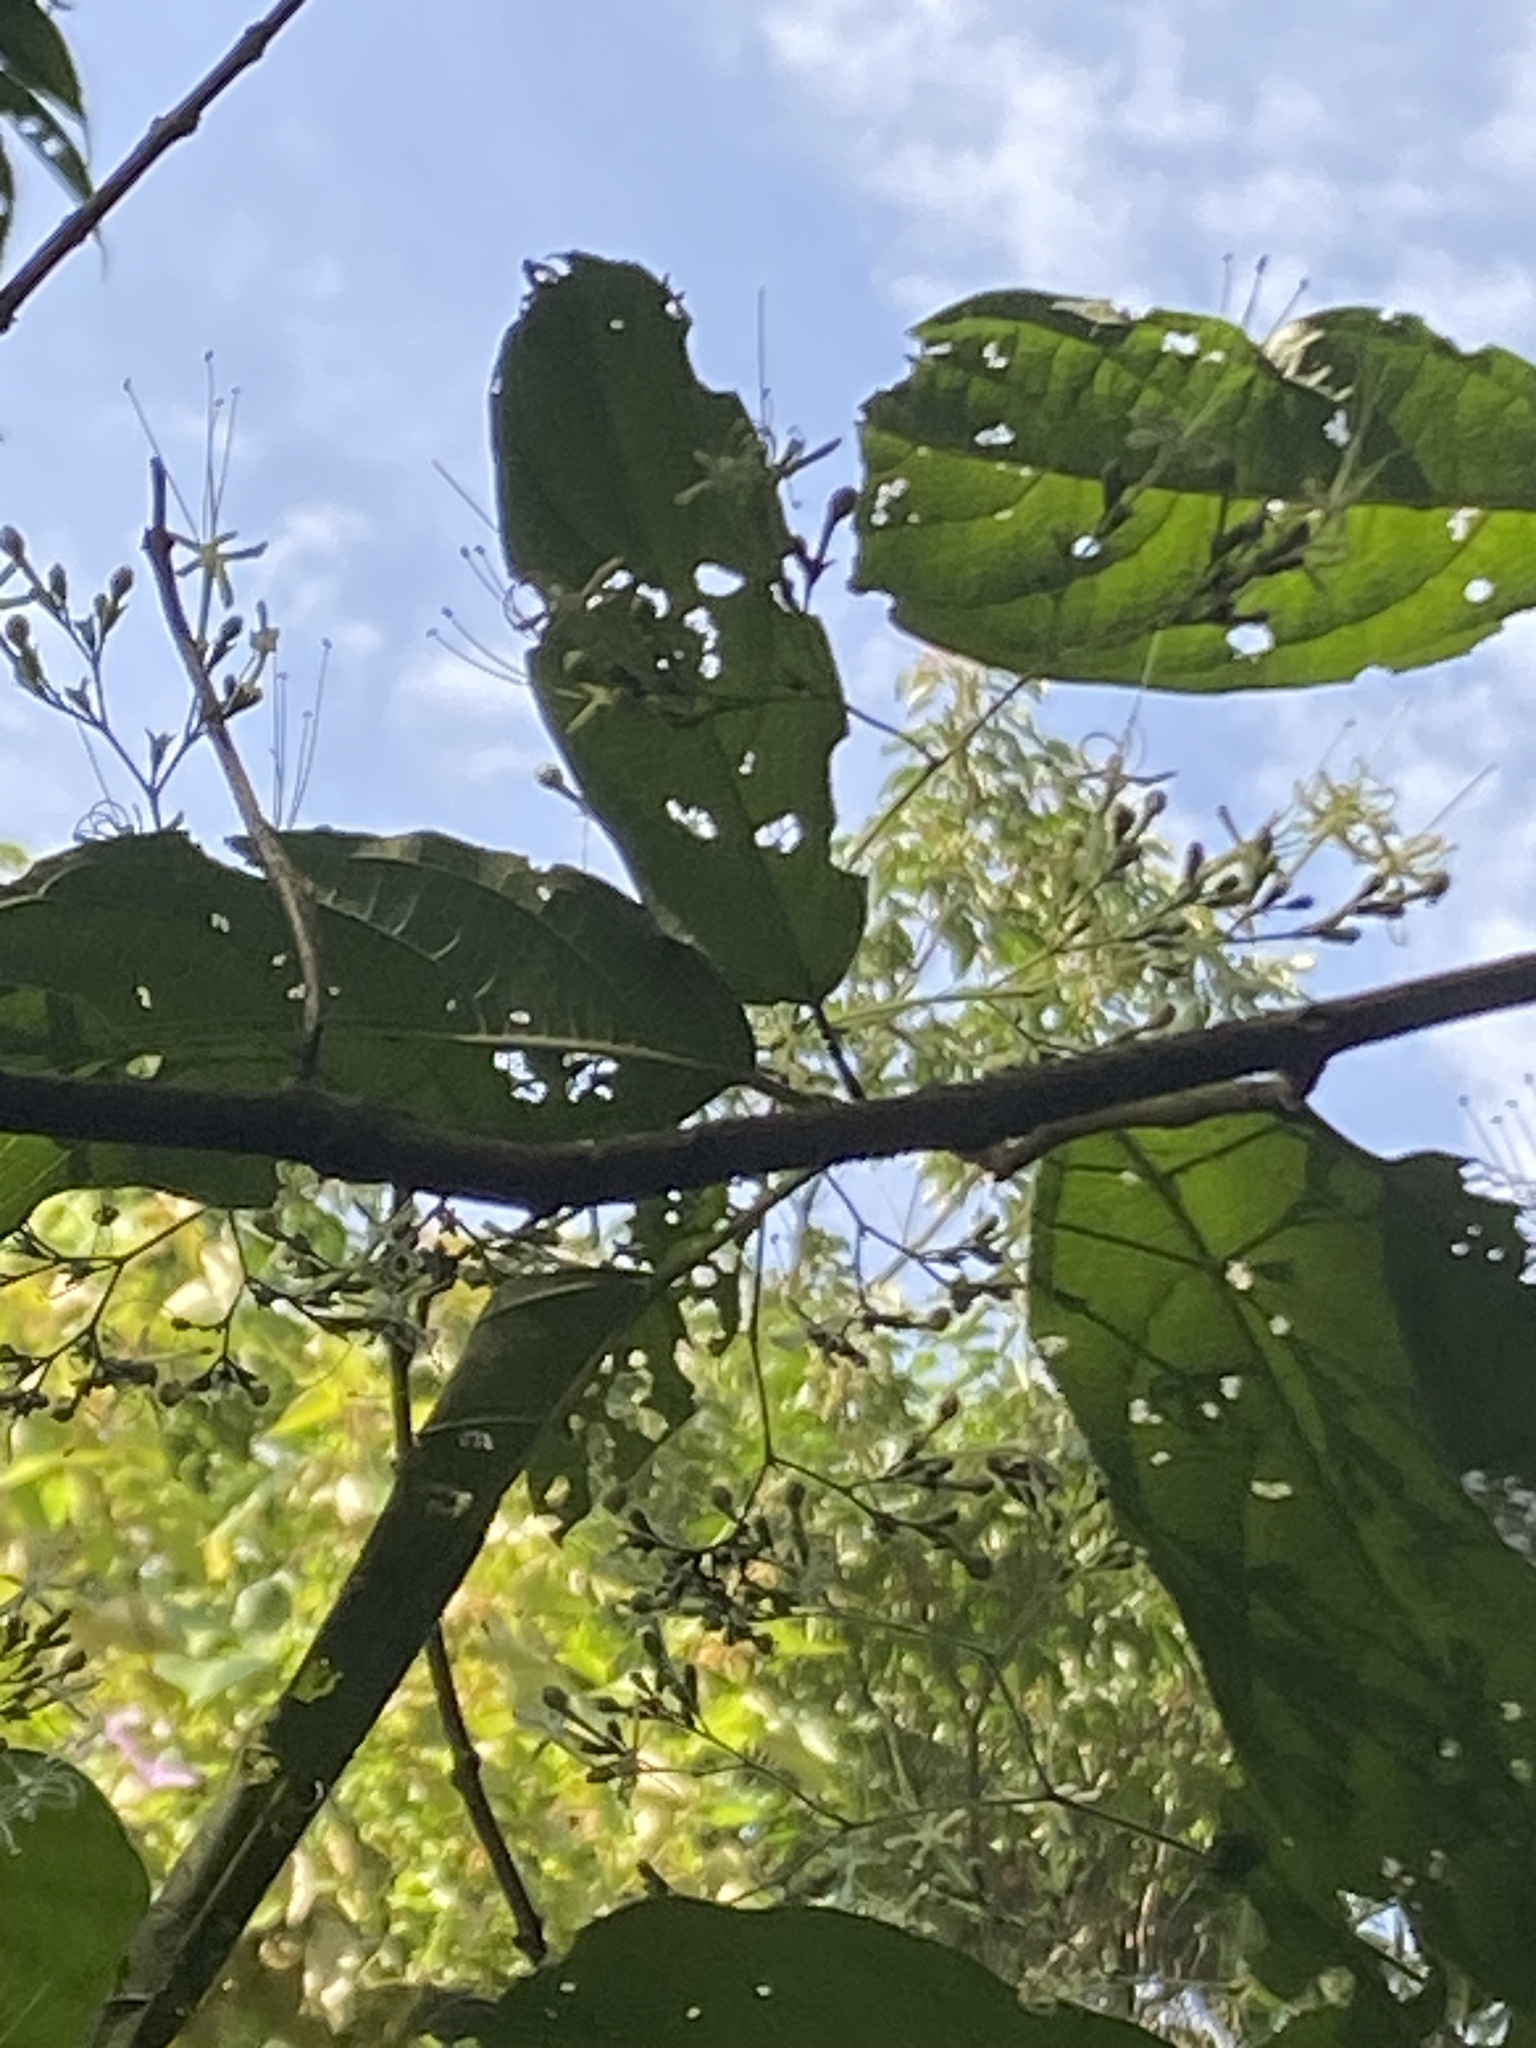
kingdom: Plantae
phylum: Tracheophyta
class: Magnoliopsida
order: Lamiales
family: Lamiaceae
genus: Clerodendrum
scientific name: Clerodendrum cyrtophyllum
